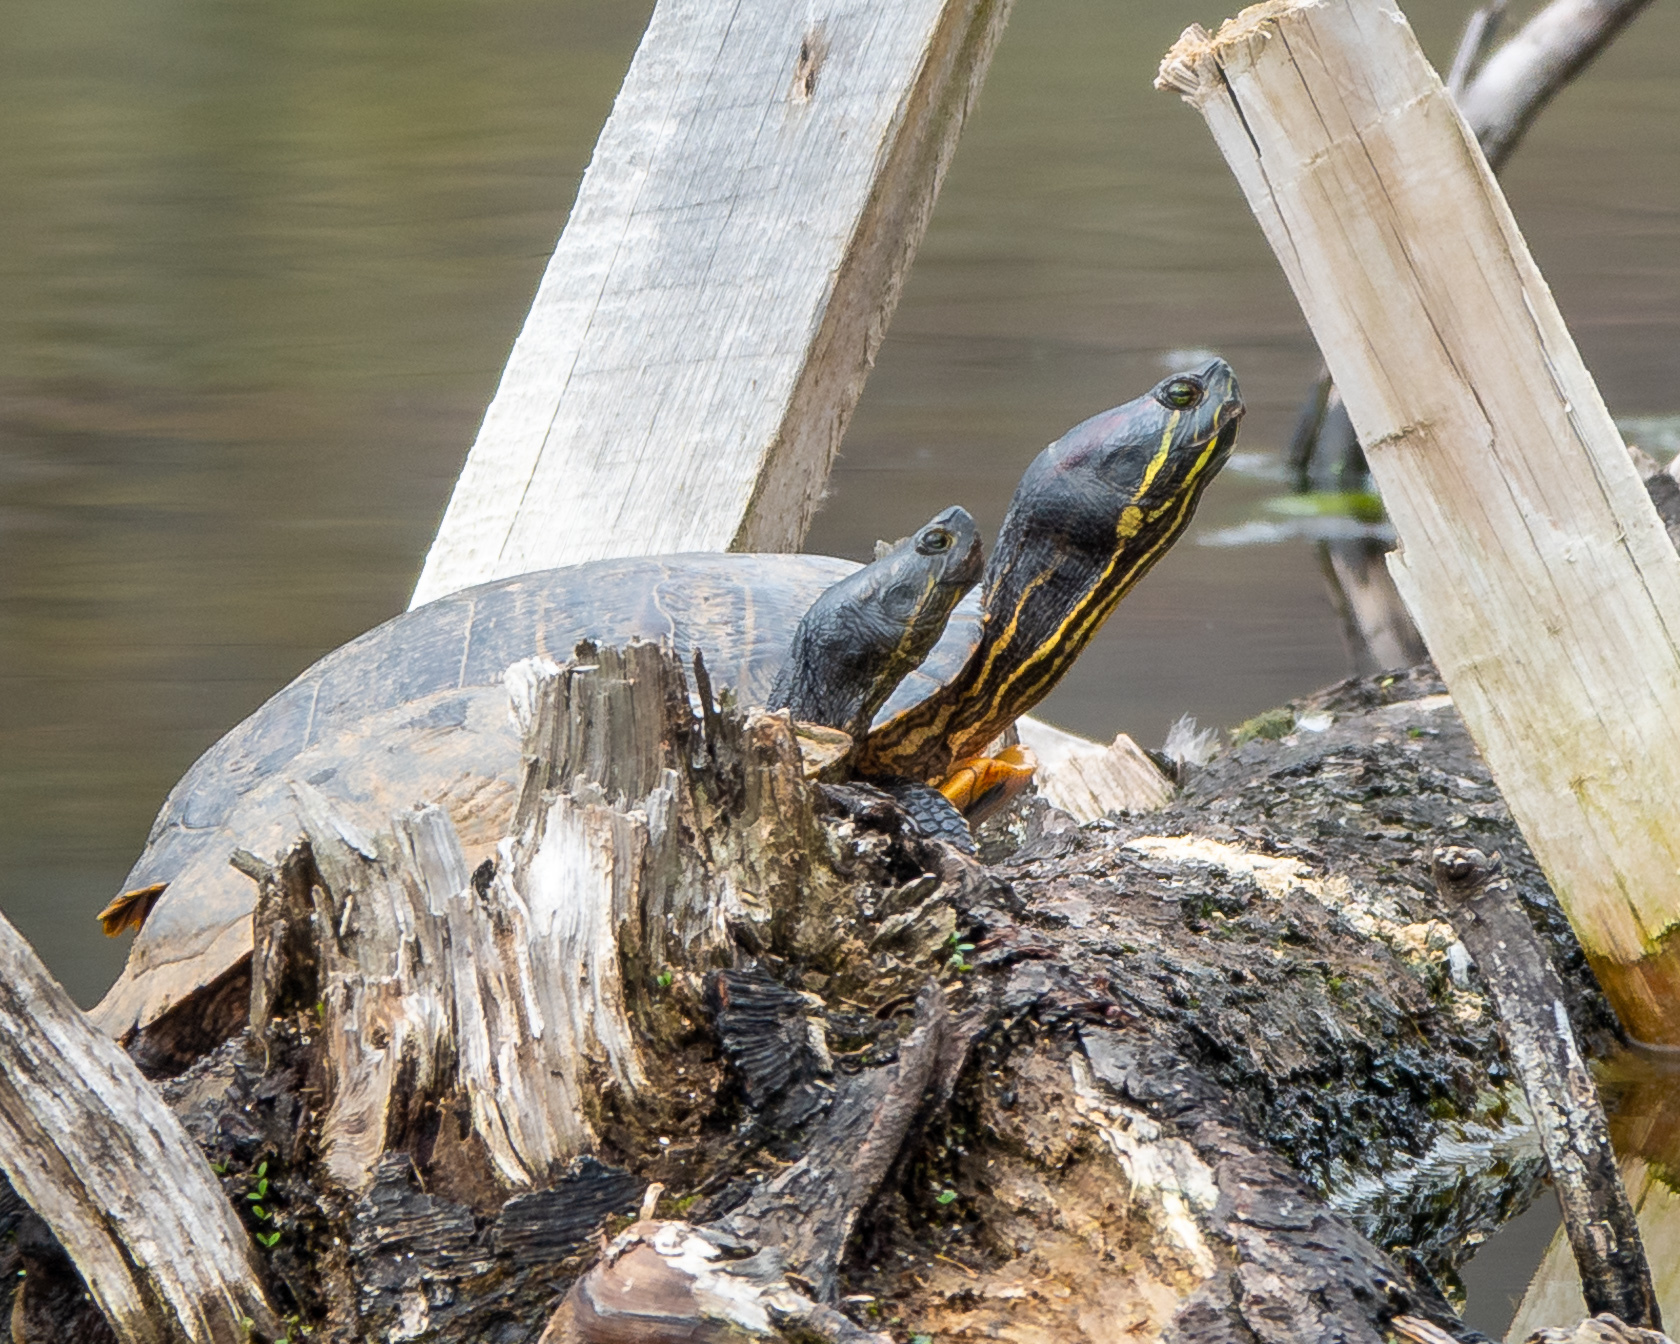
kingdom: Animalia
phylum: Chordata
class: Testudines
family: Emydidae
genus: Trachemys
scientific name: Trachemys scripta
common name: Slider
